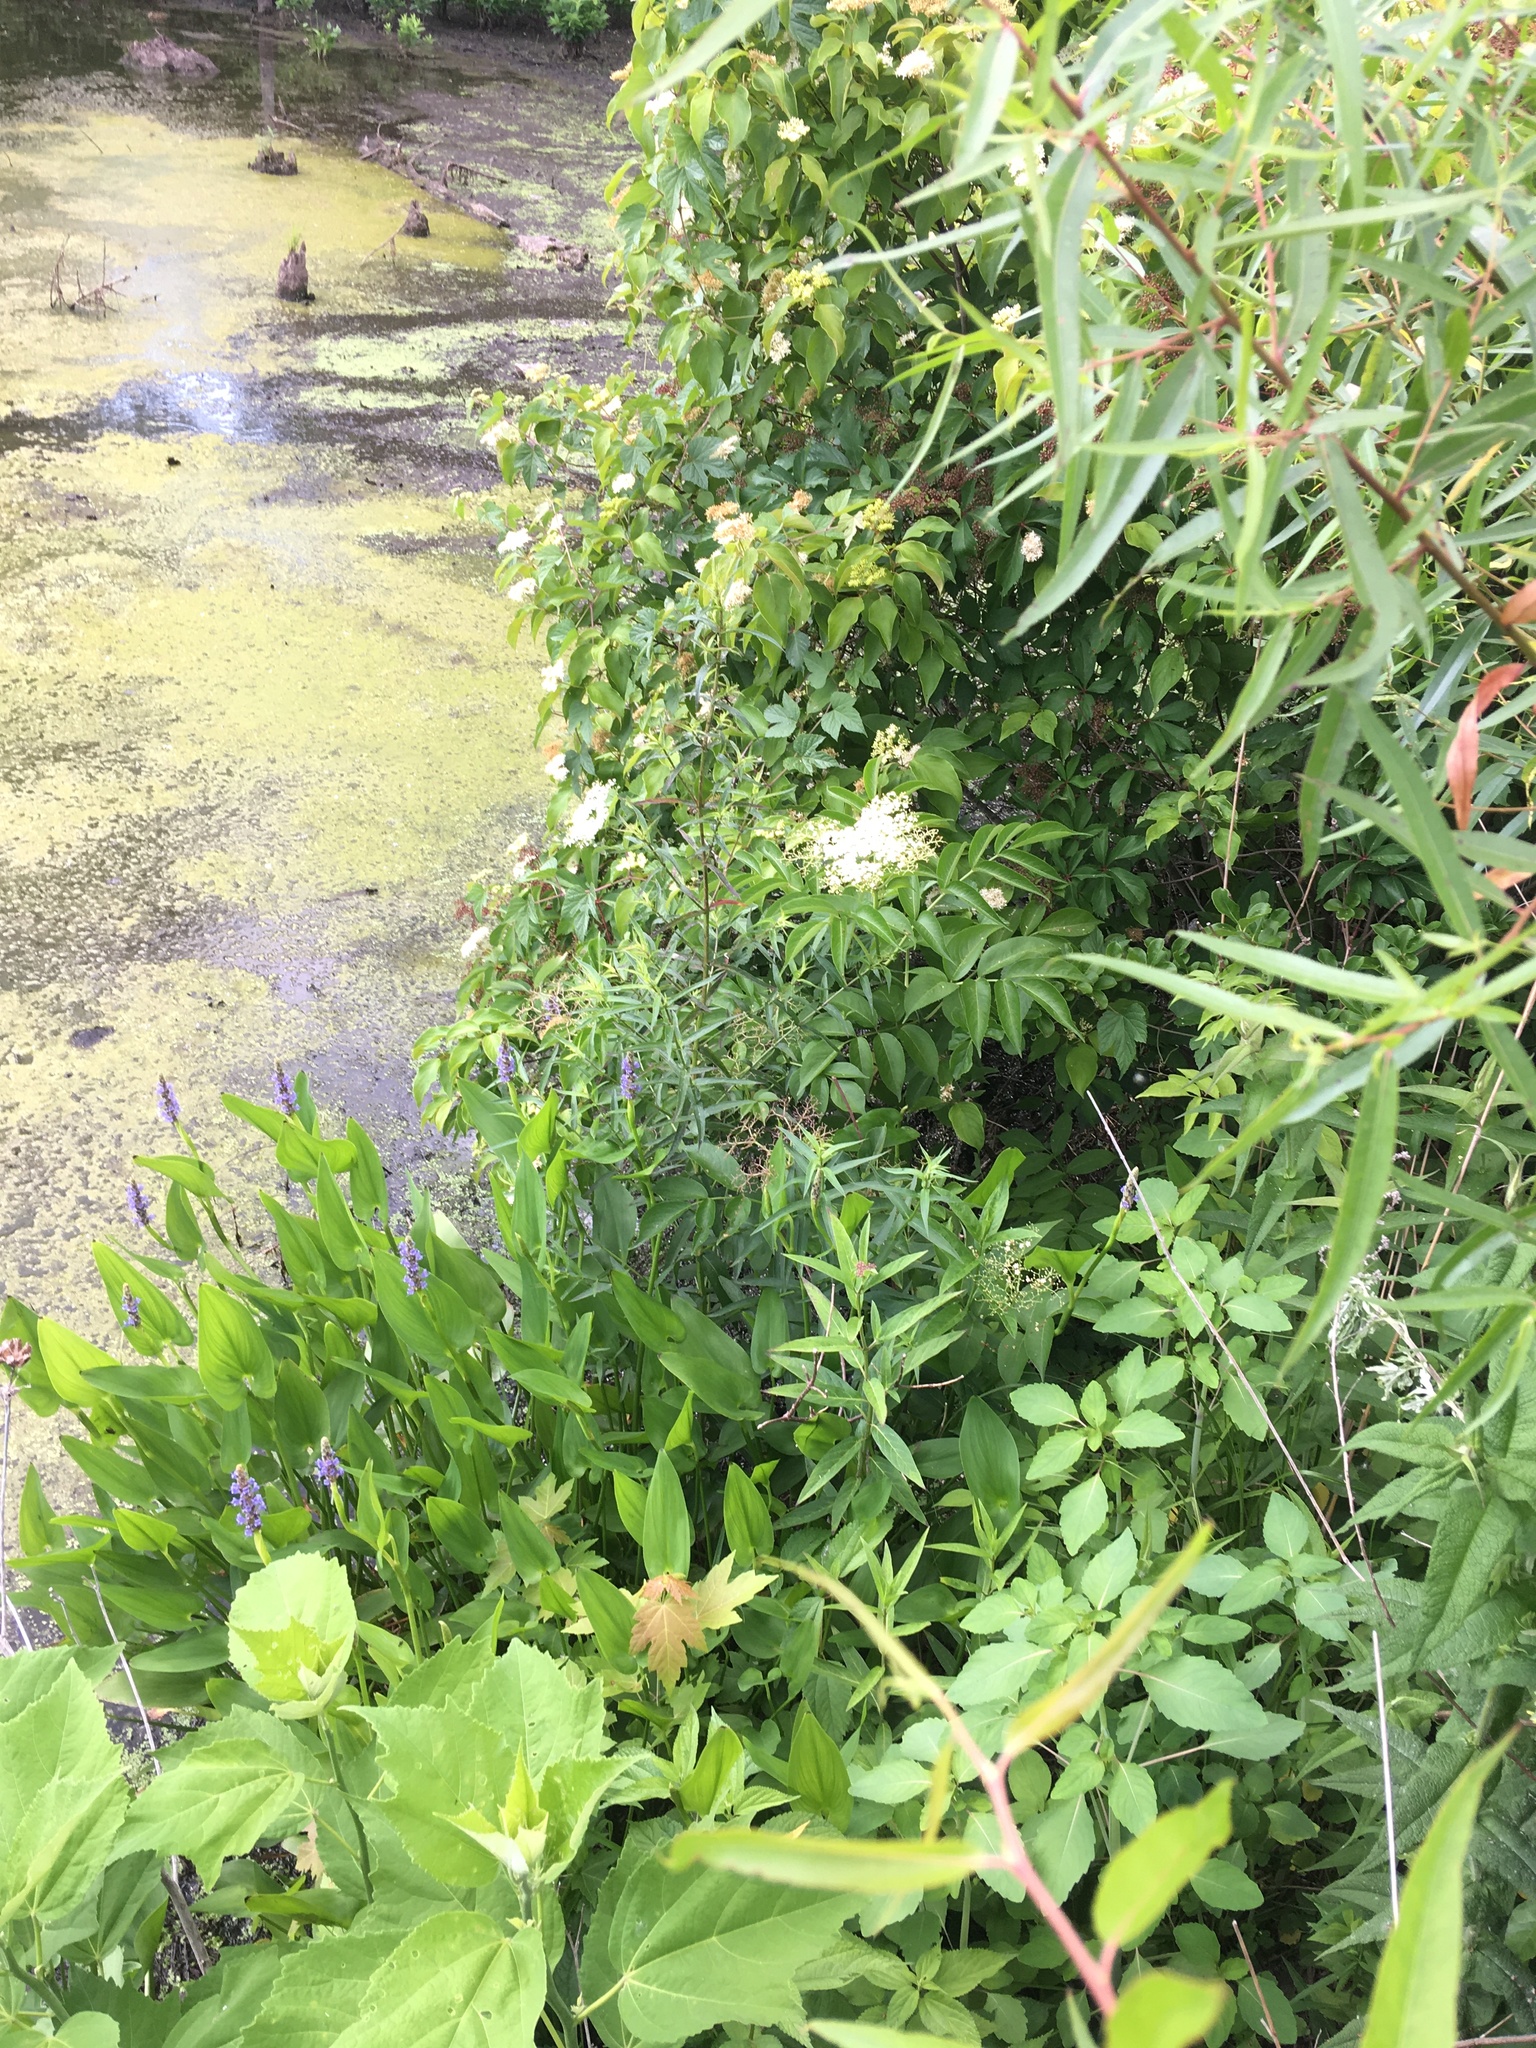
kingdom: Plantae
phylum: Tracheophyta
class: Magnoliopsida
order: Dipsacales
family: Viburnaceae
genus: Sambucus
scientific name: Sambucus canadensis
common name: American elder
